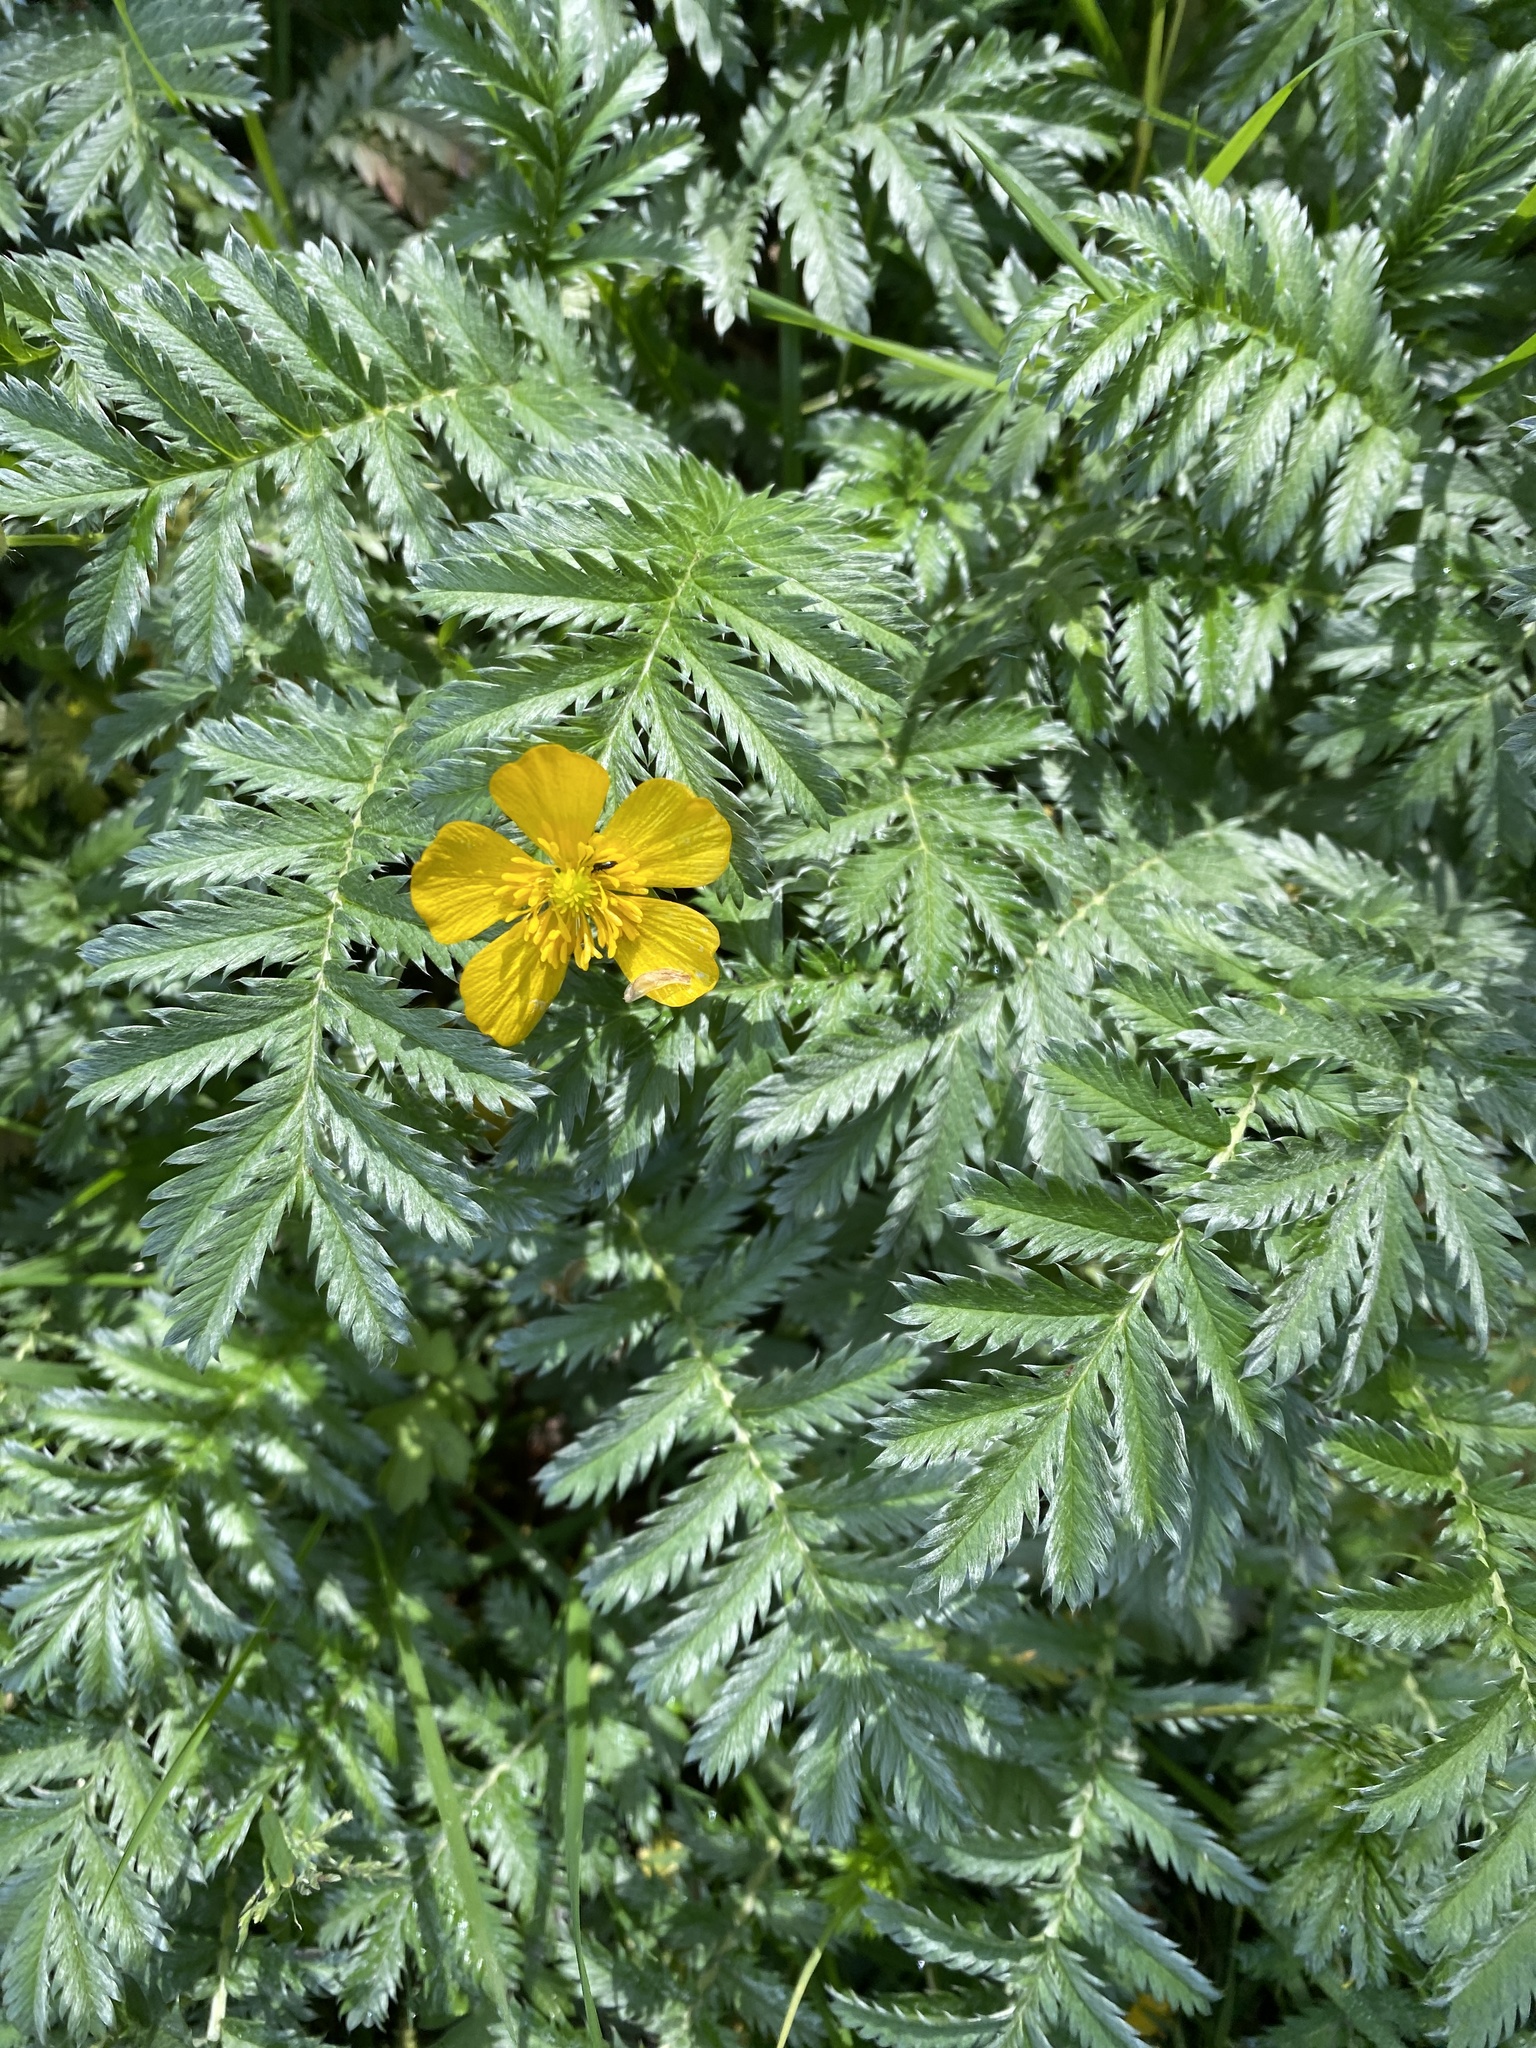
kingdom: Plantae
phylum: Tracheophyta
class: Magnoliopsida
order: Rosales
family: Rosaceae
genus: Argentina
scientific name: Argentina anserina
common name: Common silverweed
